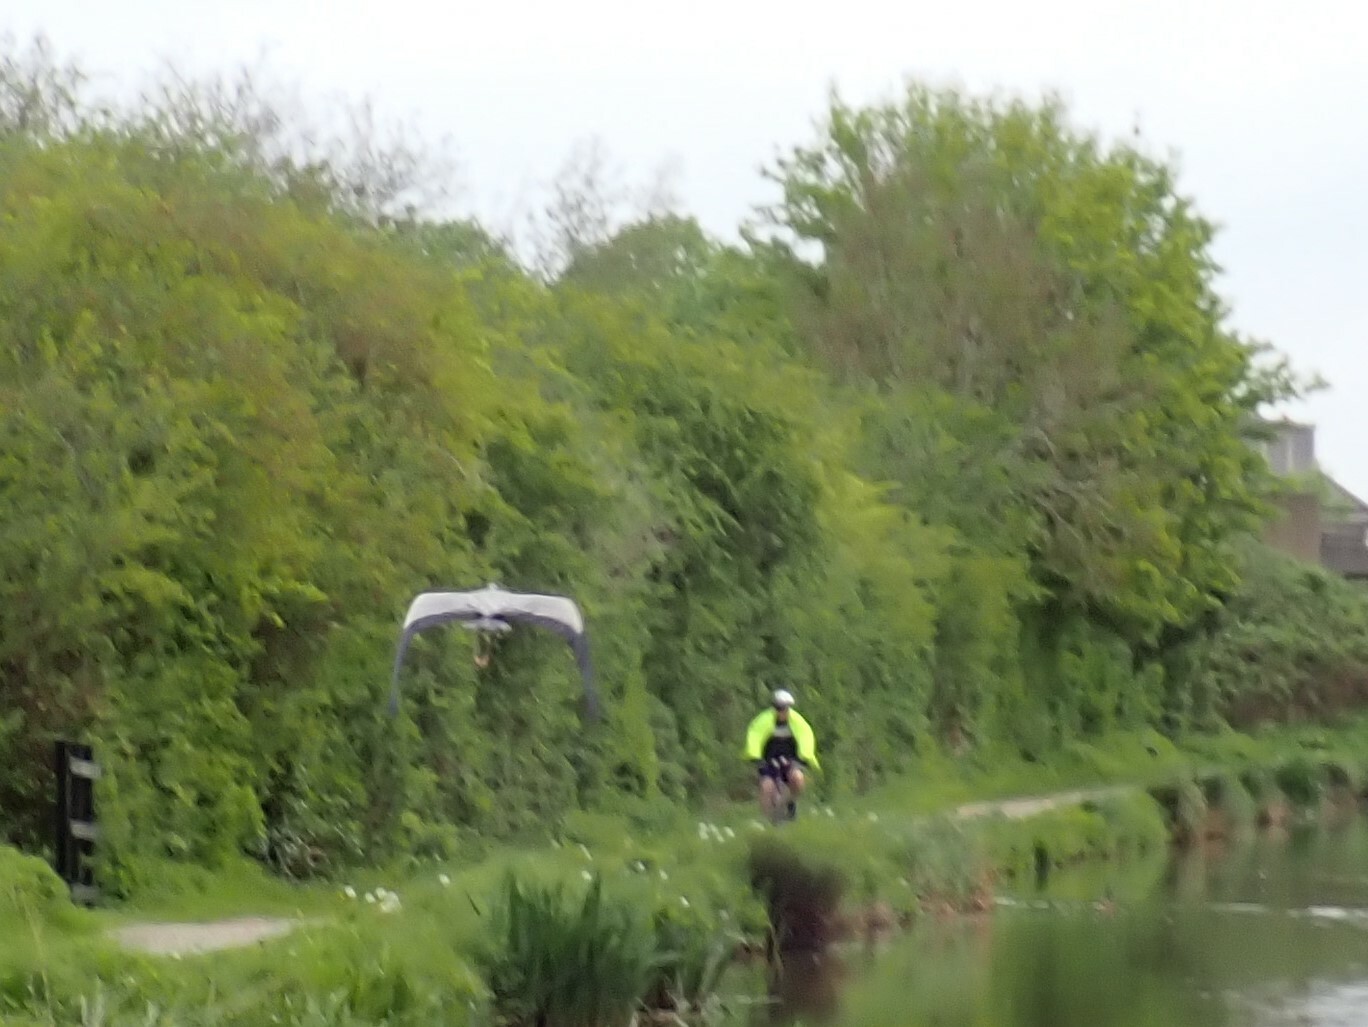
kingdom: Animalia
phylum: Chordata
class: Aves
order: Pelecaniformes
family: Ardeidae
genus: Ardea
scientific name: Ardea cinerea
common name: Grey heron
